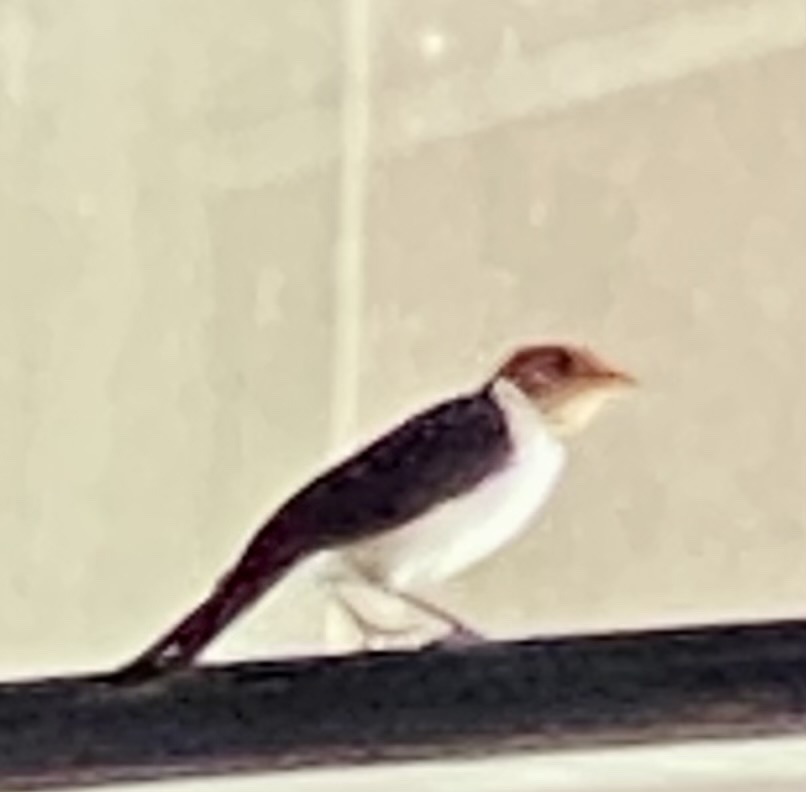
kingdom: Animalia
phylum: Chordata
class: Aves
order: Passeriformes
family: Thraupidae
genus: Paroaria
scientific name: Paroaria capitata
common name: Yellow-billed cardinal
